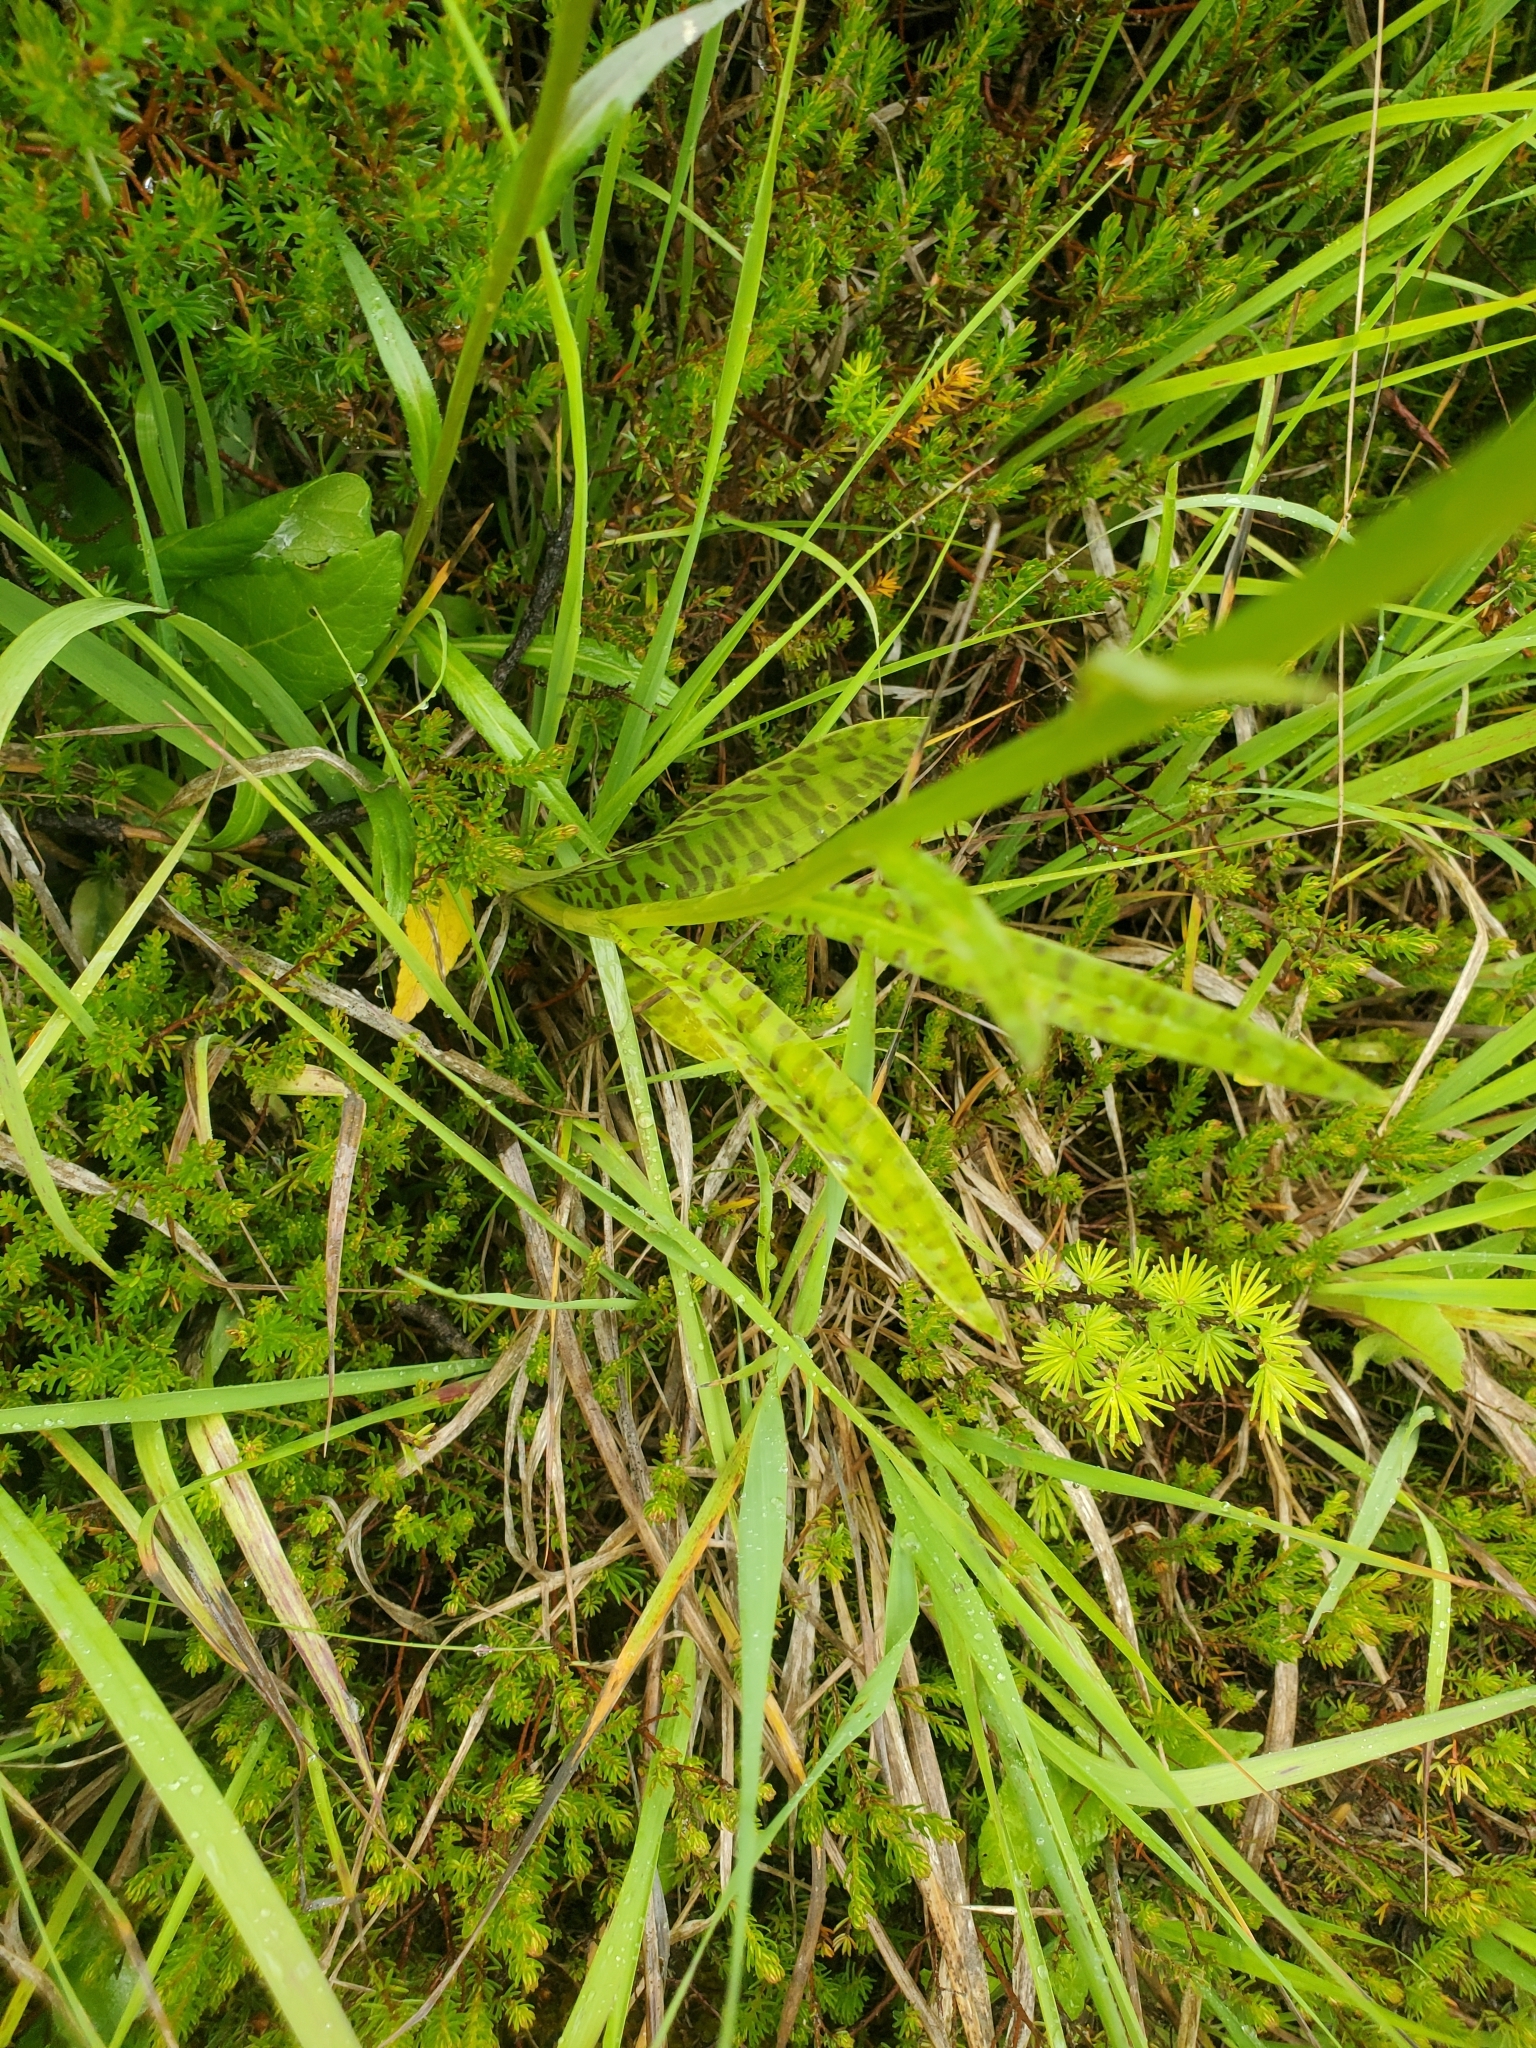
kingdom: Plantae
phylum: Tracheophyta
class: Liliopsida
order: Asparagales
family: Orchidaceae
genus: Dactylorhiza
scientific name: Dactylorhiza maculata
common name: Heath spotted-orchid
